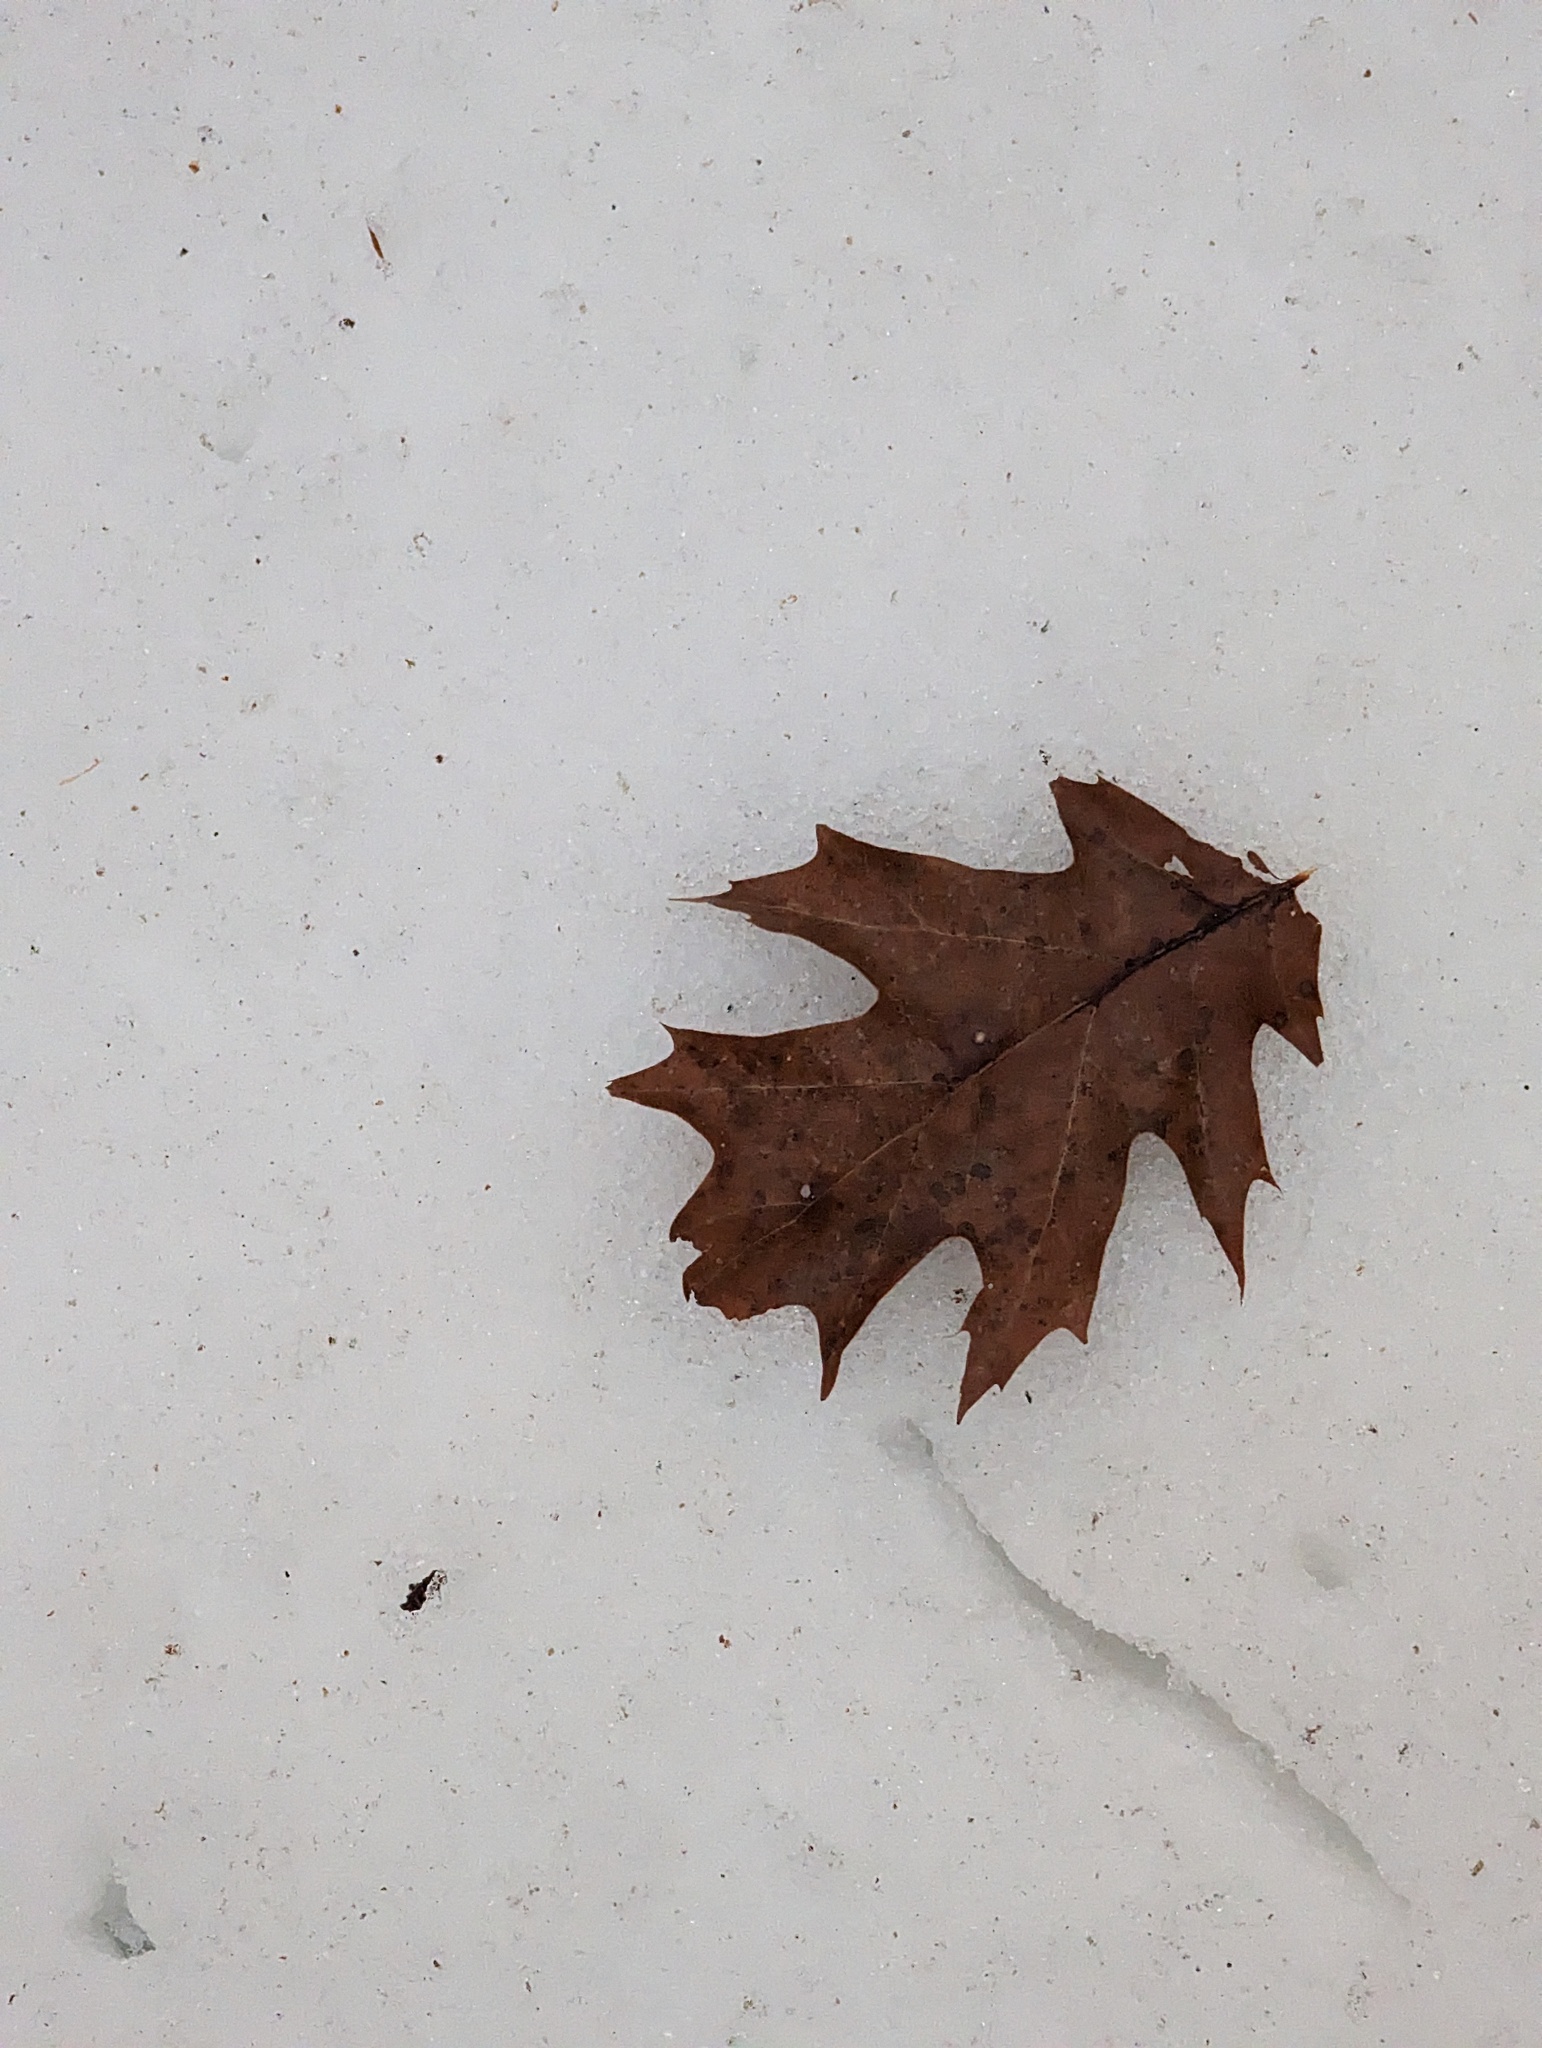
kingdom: Plantae
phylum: Tracheophyta
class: Magnoliopsida
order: Fagales
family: Fagaceae
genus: Quercus
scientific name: Quercus rubra
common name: Red oak
